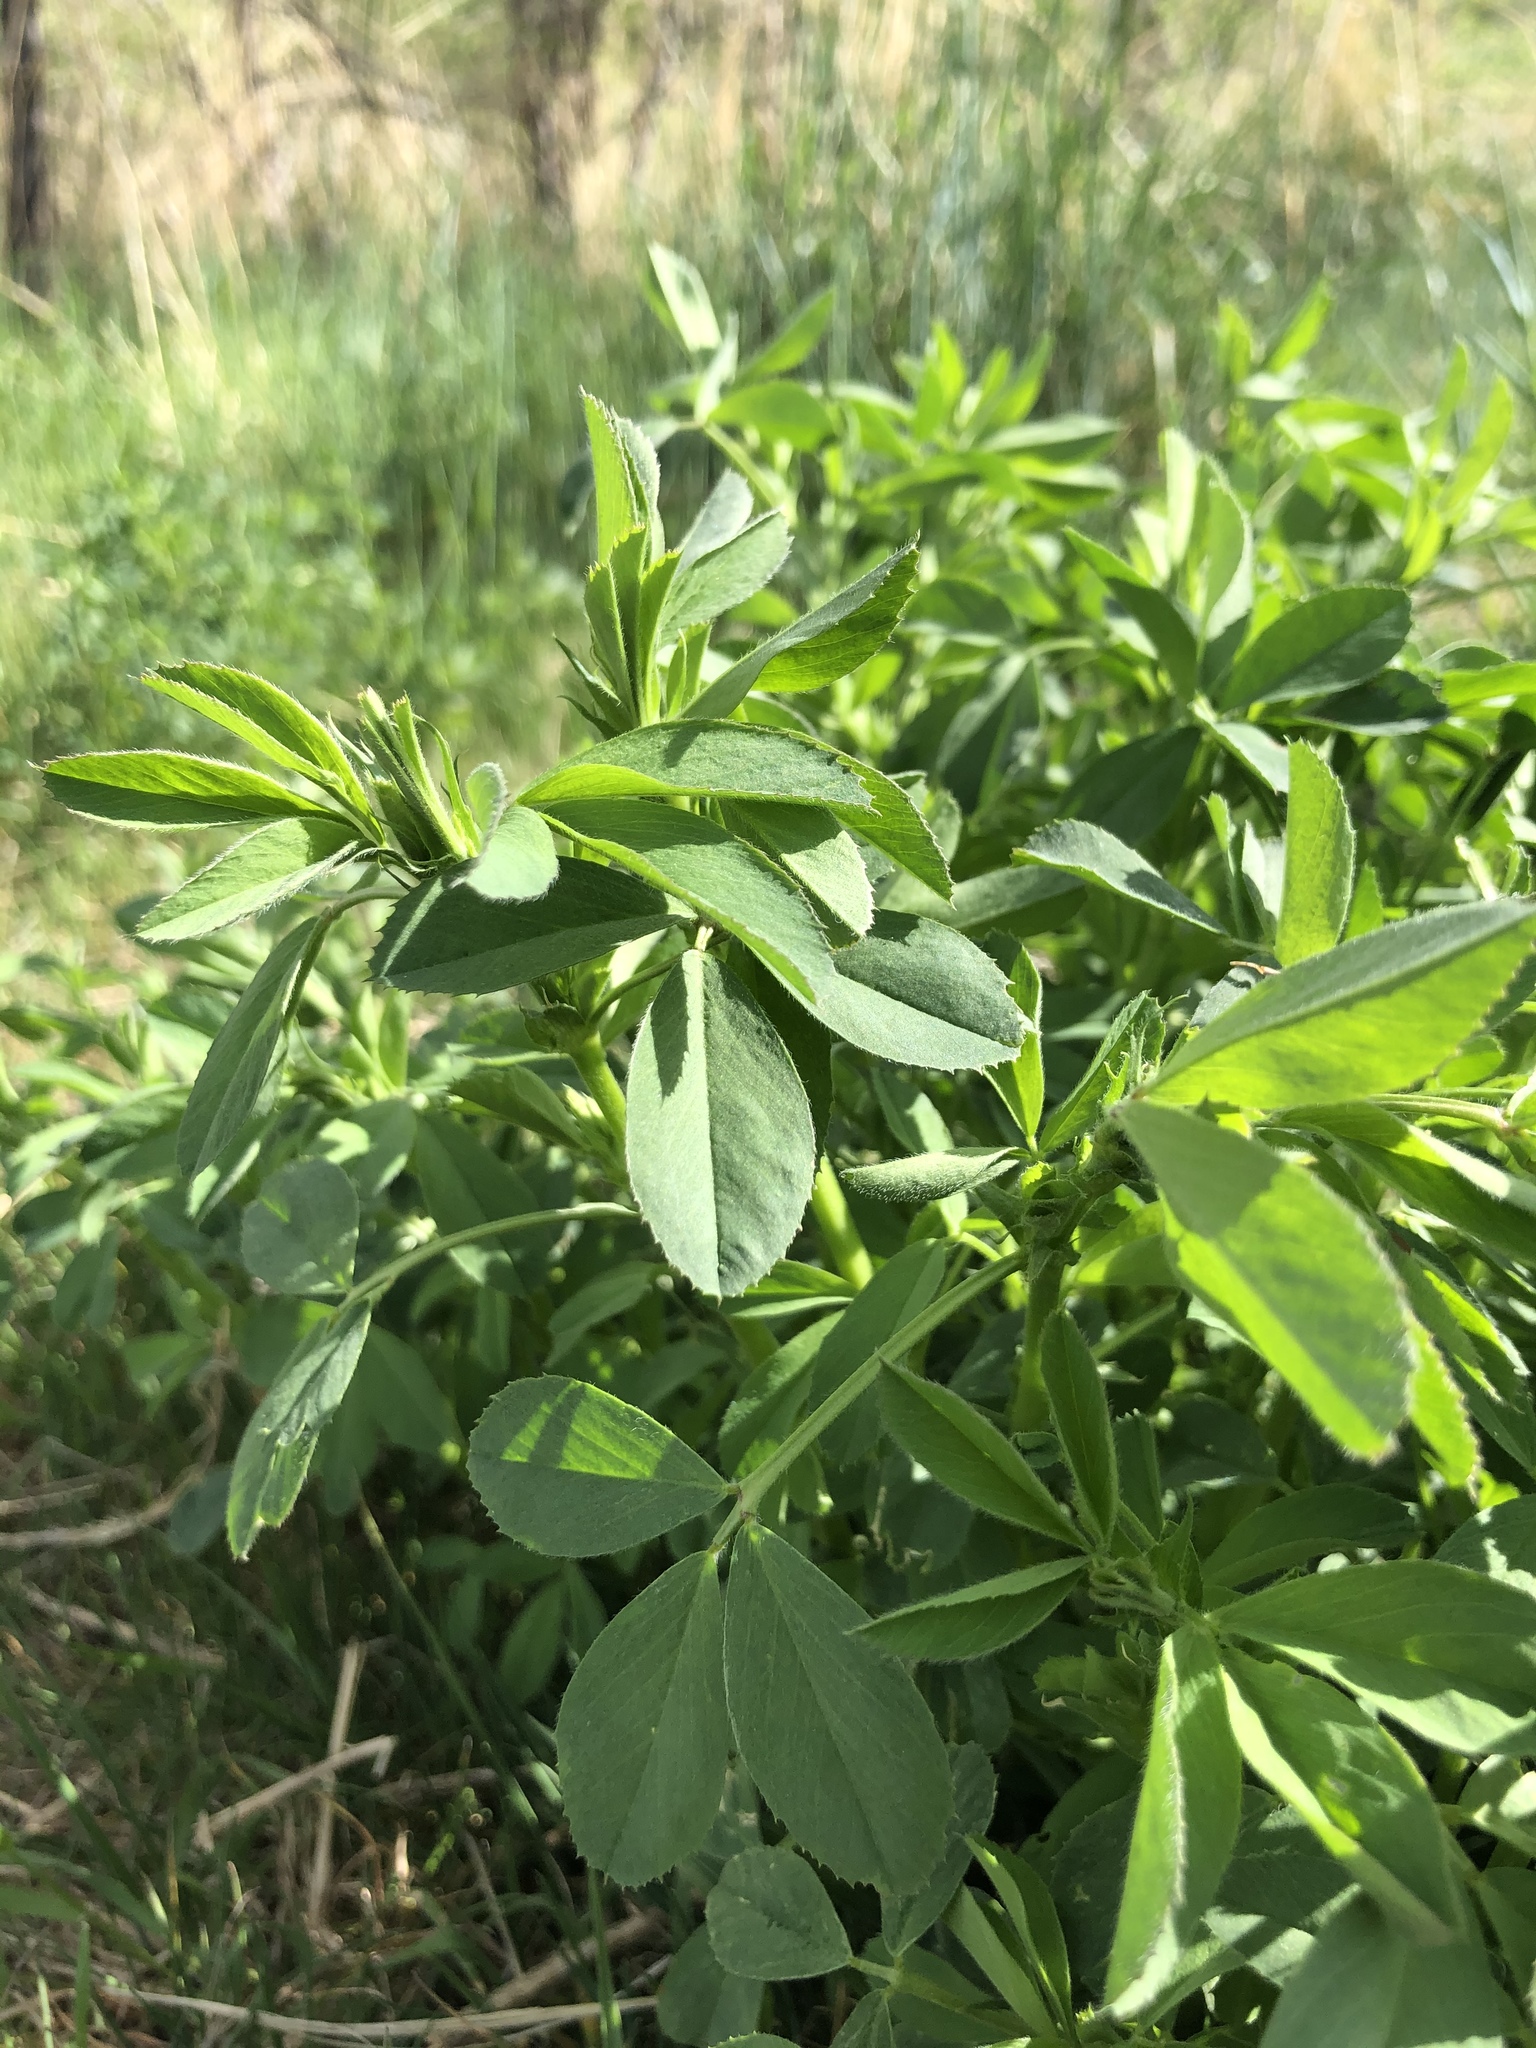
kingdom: Plantae
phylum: Tracheophyta
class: Magnoliopsida
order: Fabales
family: Fabaceae
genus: Medicago
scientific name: Medicago sativa
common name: Alfalfa
